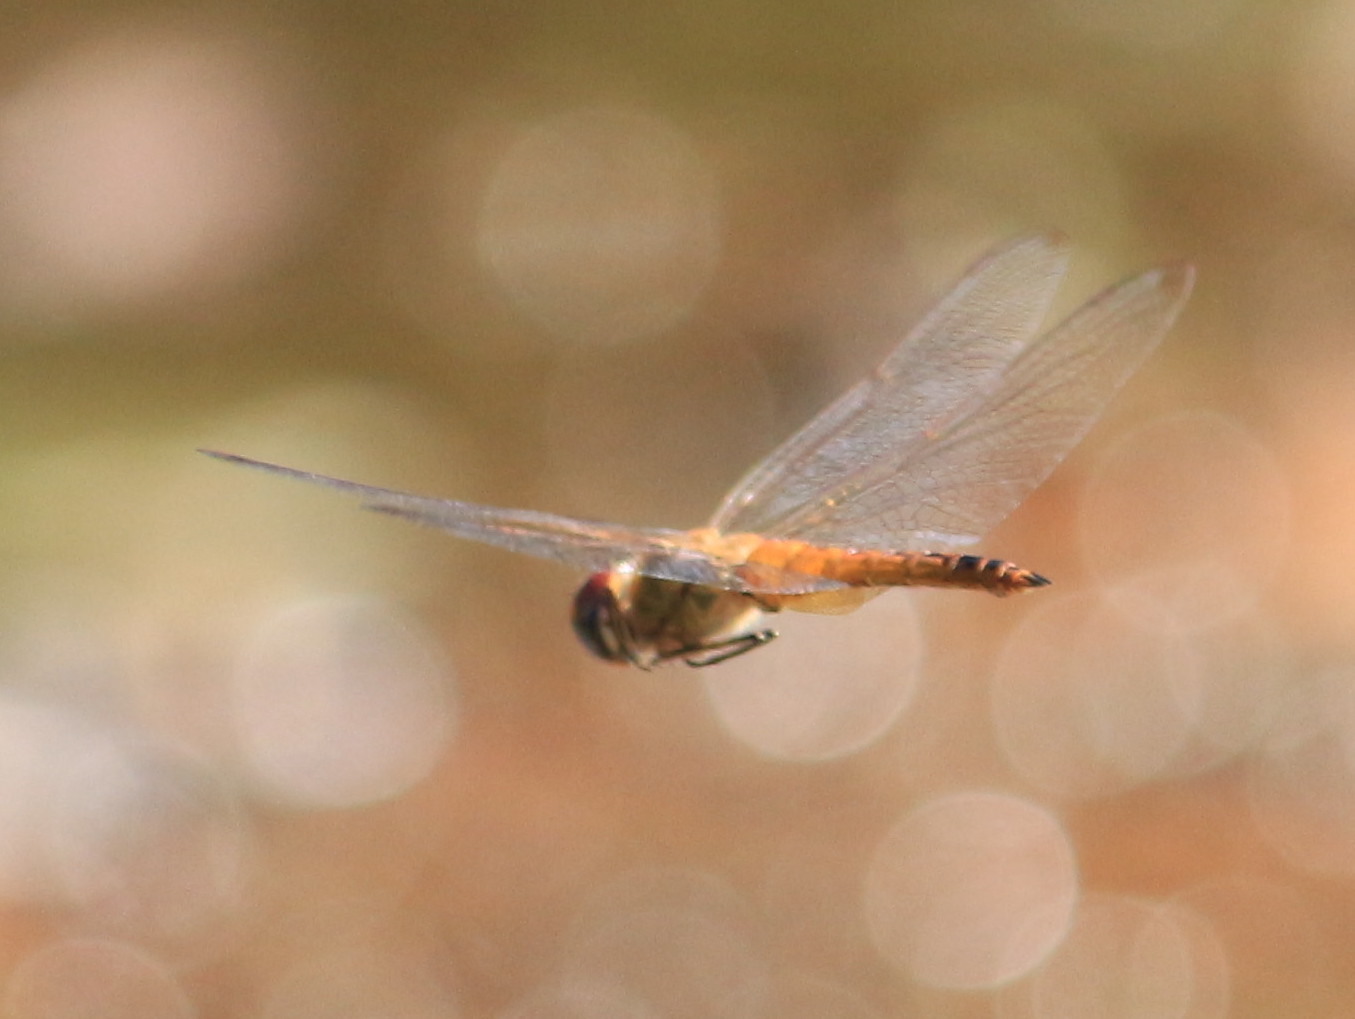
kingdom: Animalia
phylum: Arthropoda
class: Insecta
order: Odonata
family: Libellulidae
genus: Pantala
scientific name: Pantala flavescens
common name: Wandering glider
